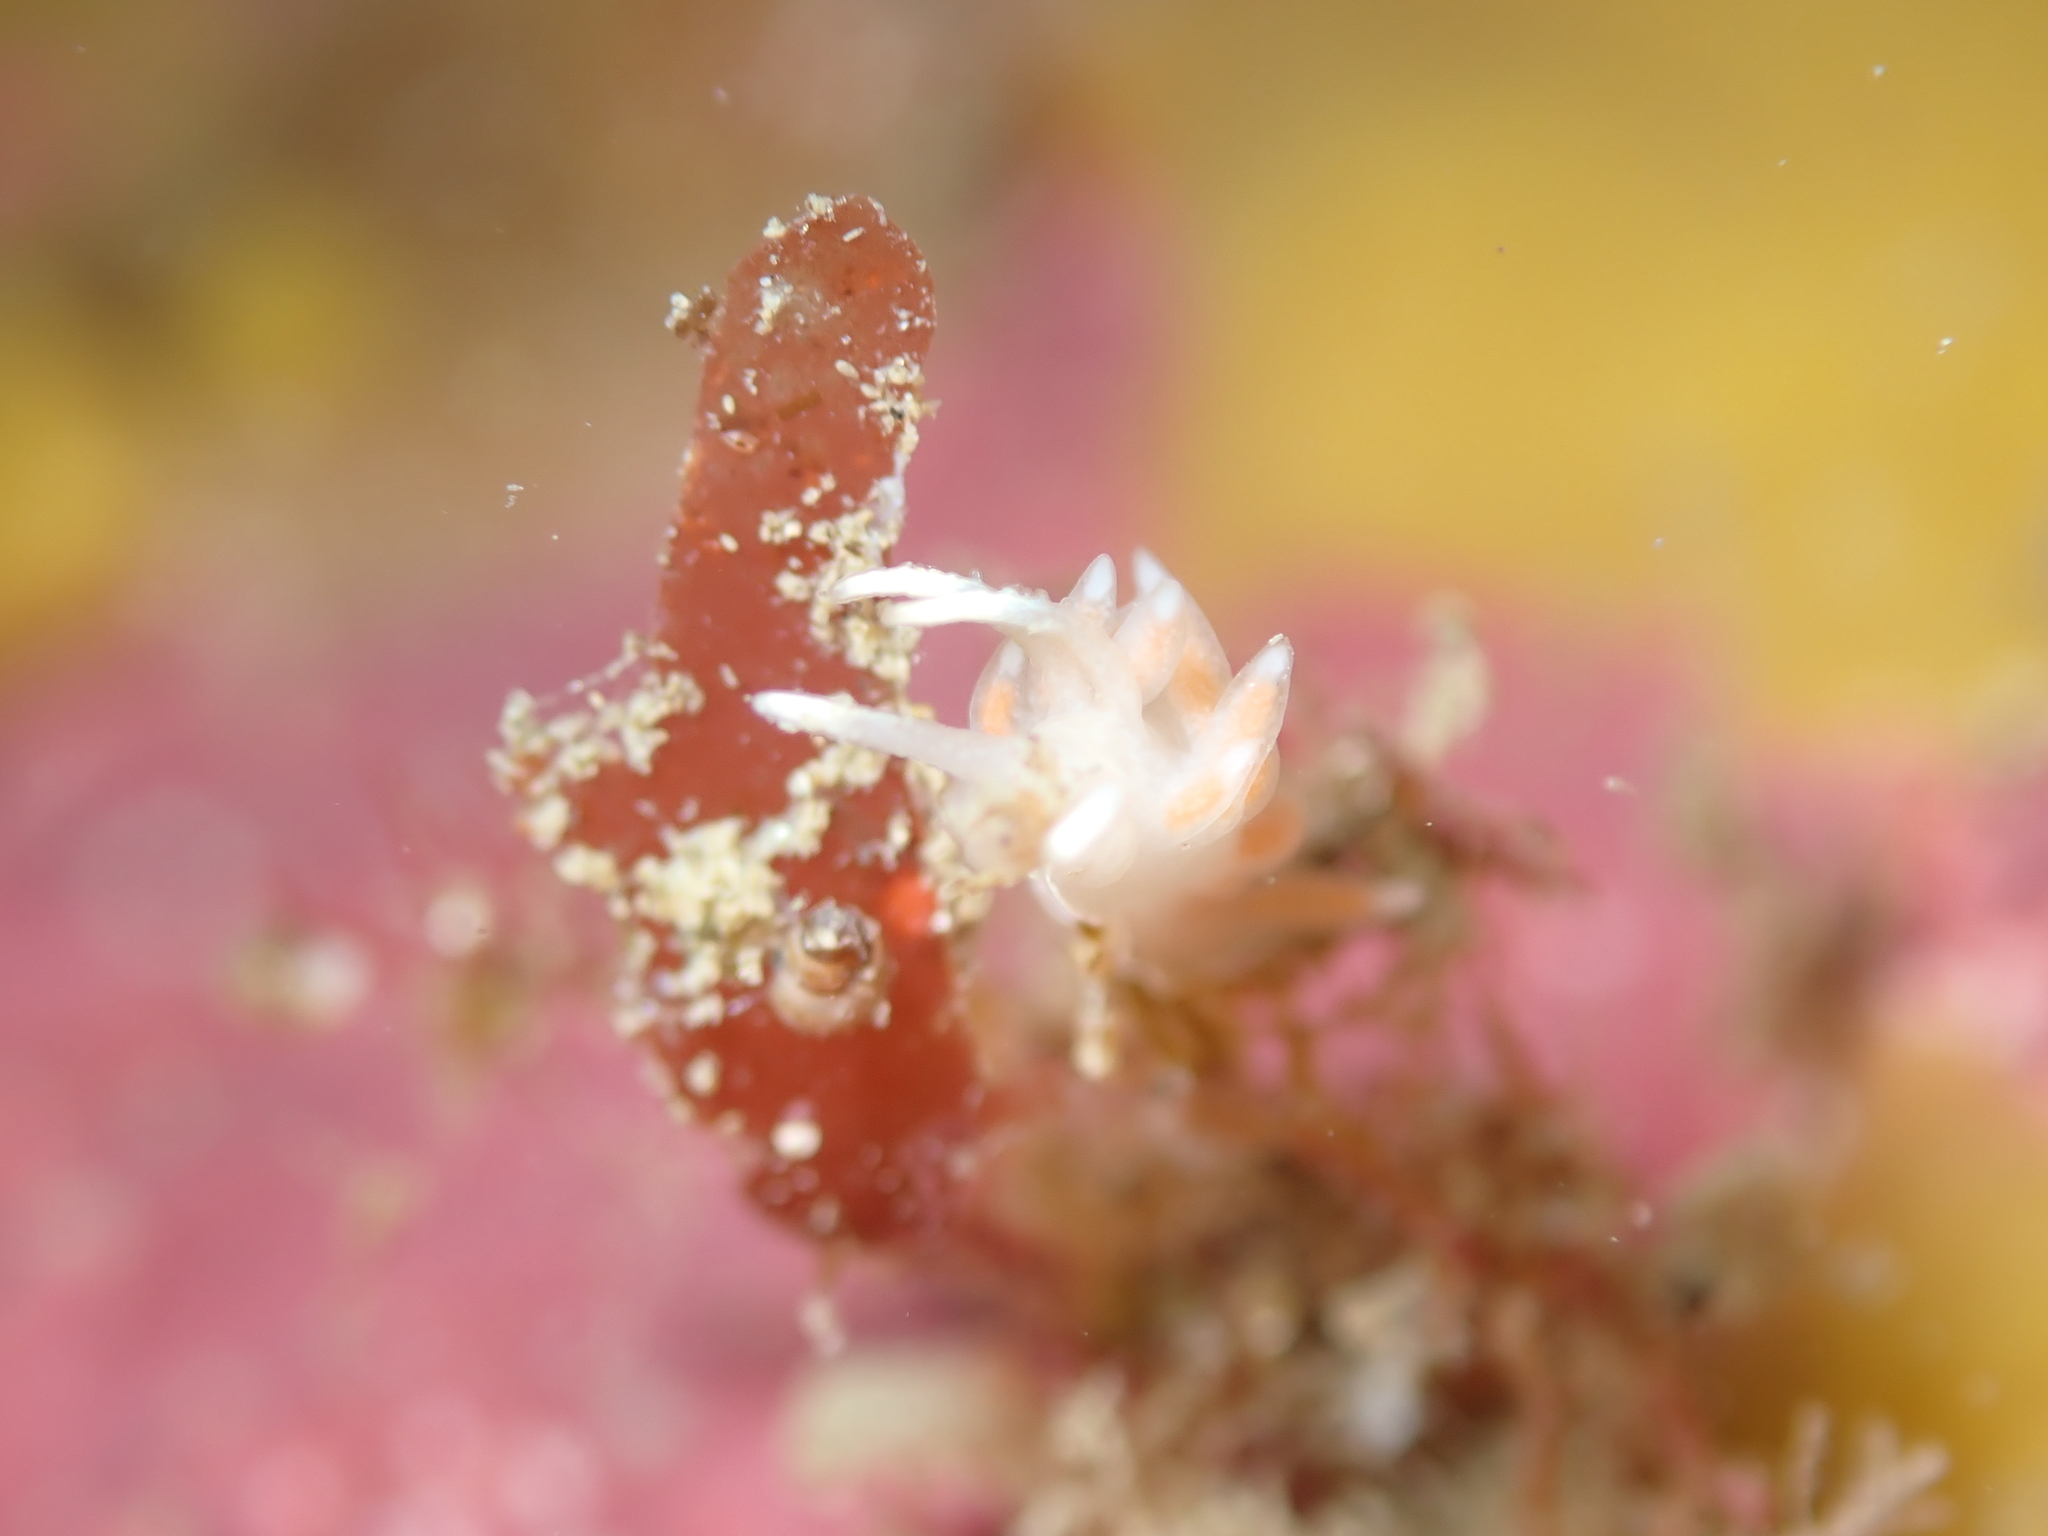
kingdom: Animalia
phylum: Mollusca
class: Gastropoda
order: Nudibranchia
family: Flabellinidae
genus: Coryphellina
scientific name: Coryphellina albomarginata
